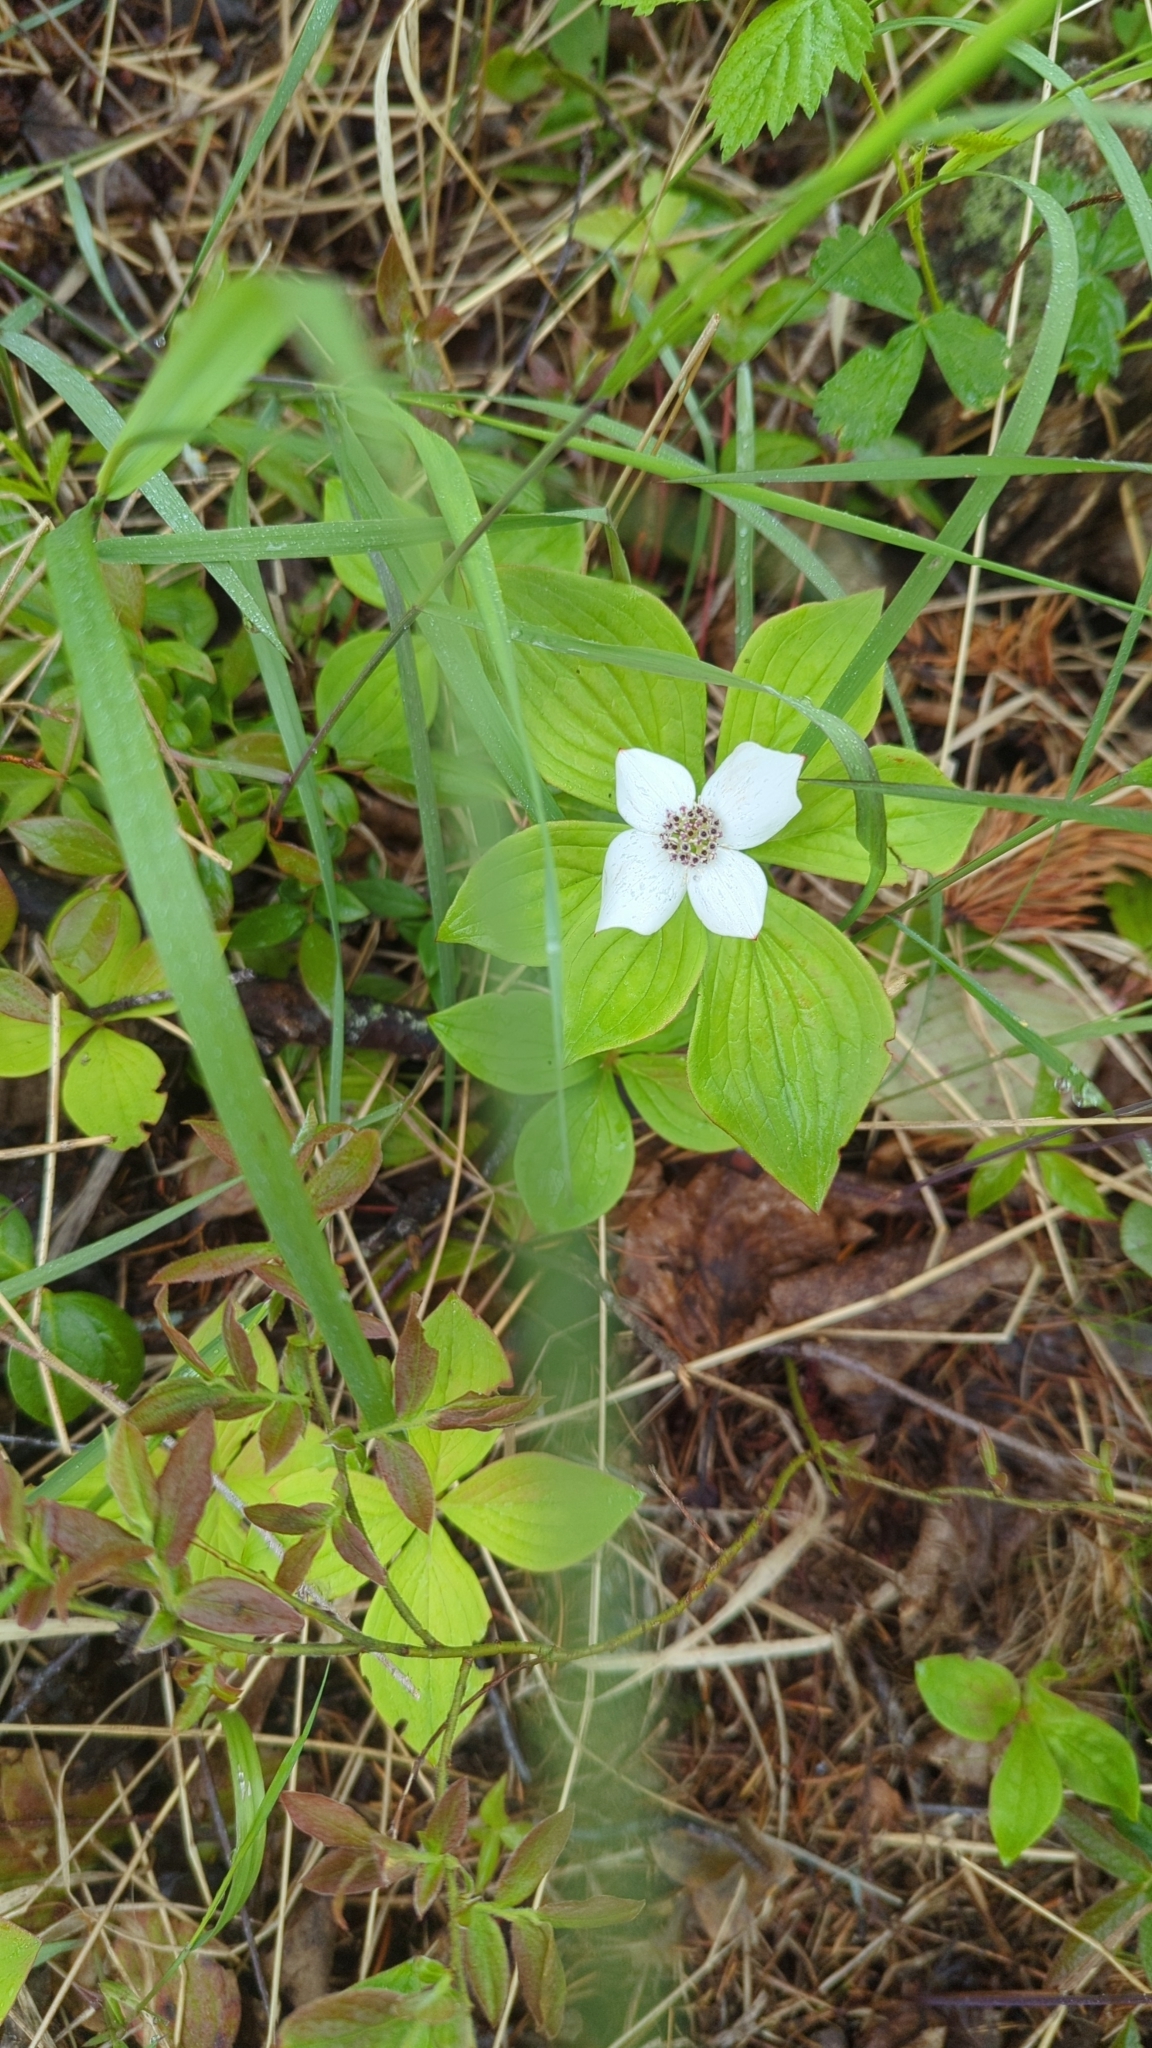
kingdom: Plantae
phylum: Tracheophyta
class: Magnoliopsida
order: Cornales
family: Cornaceae
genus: Cornus
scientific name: Cornus canadensis
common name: Creeping dogwood
